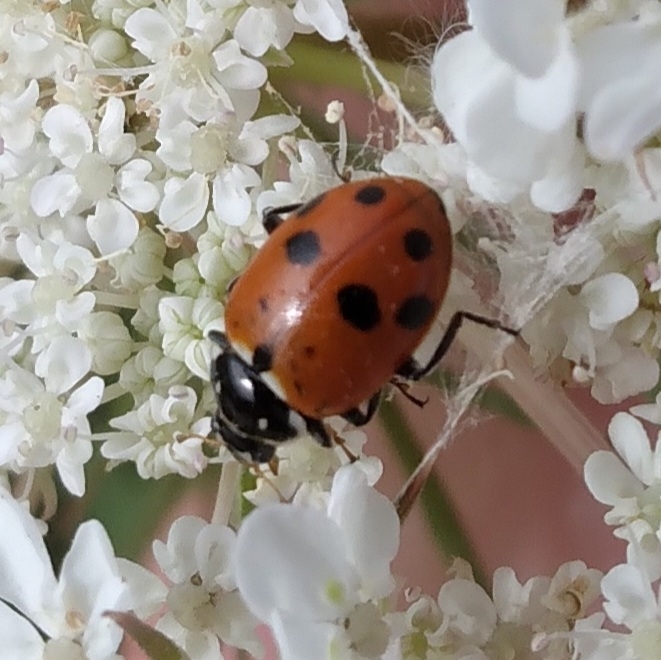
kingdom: Animalia
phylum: Arthropoda
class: Insecta
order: Coleoptera
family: Coccinellidae
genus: Hippodamia
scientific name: Hippodamia variegata
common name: Ladybird beetle
